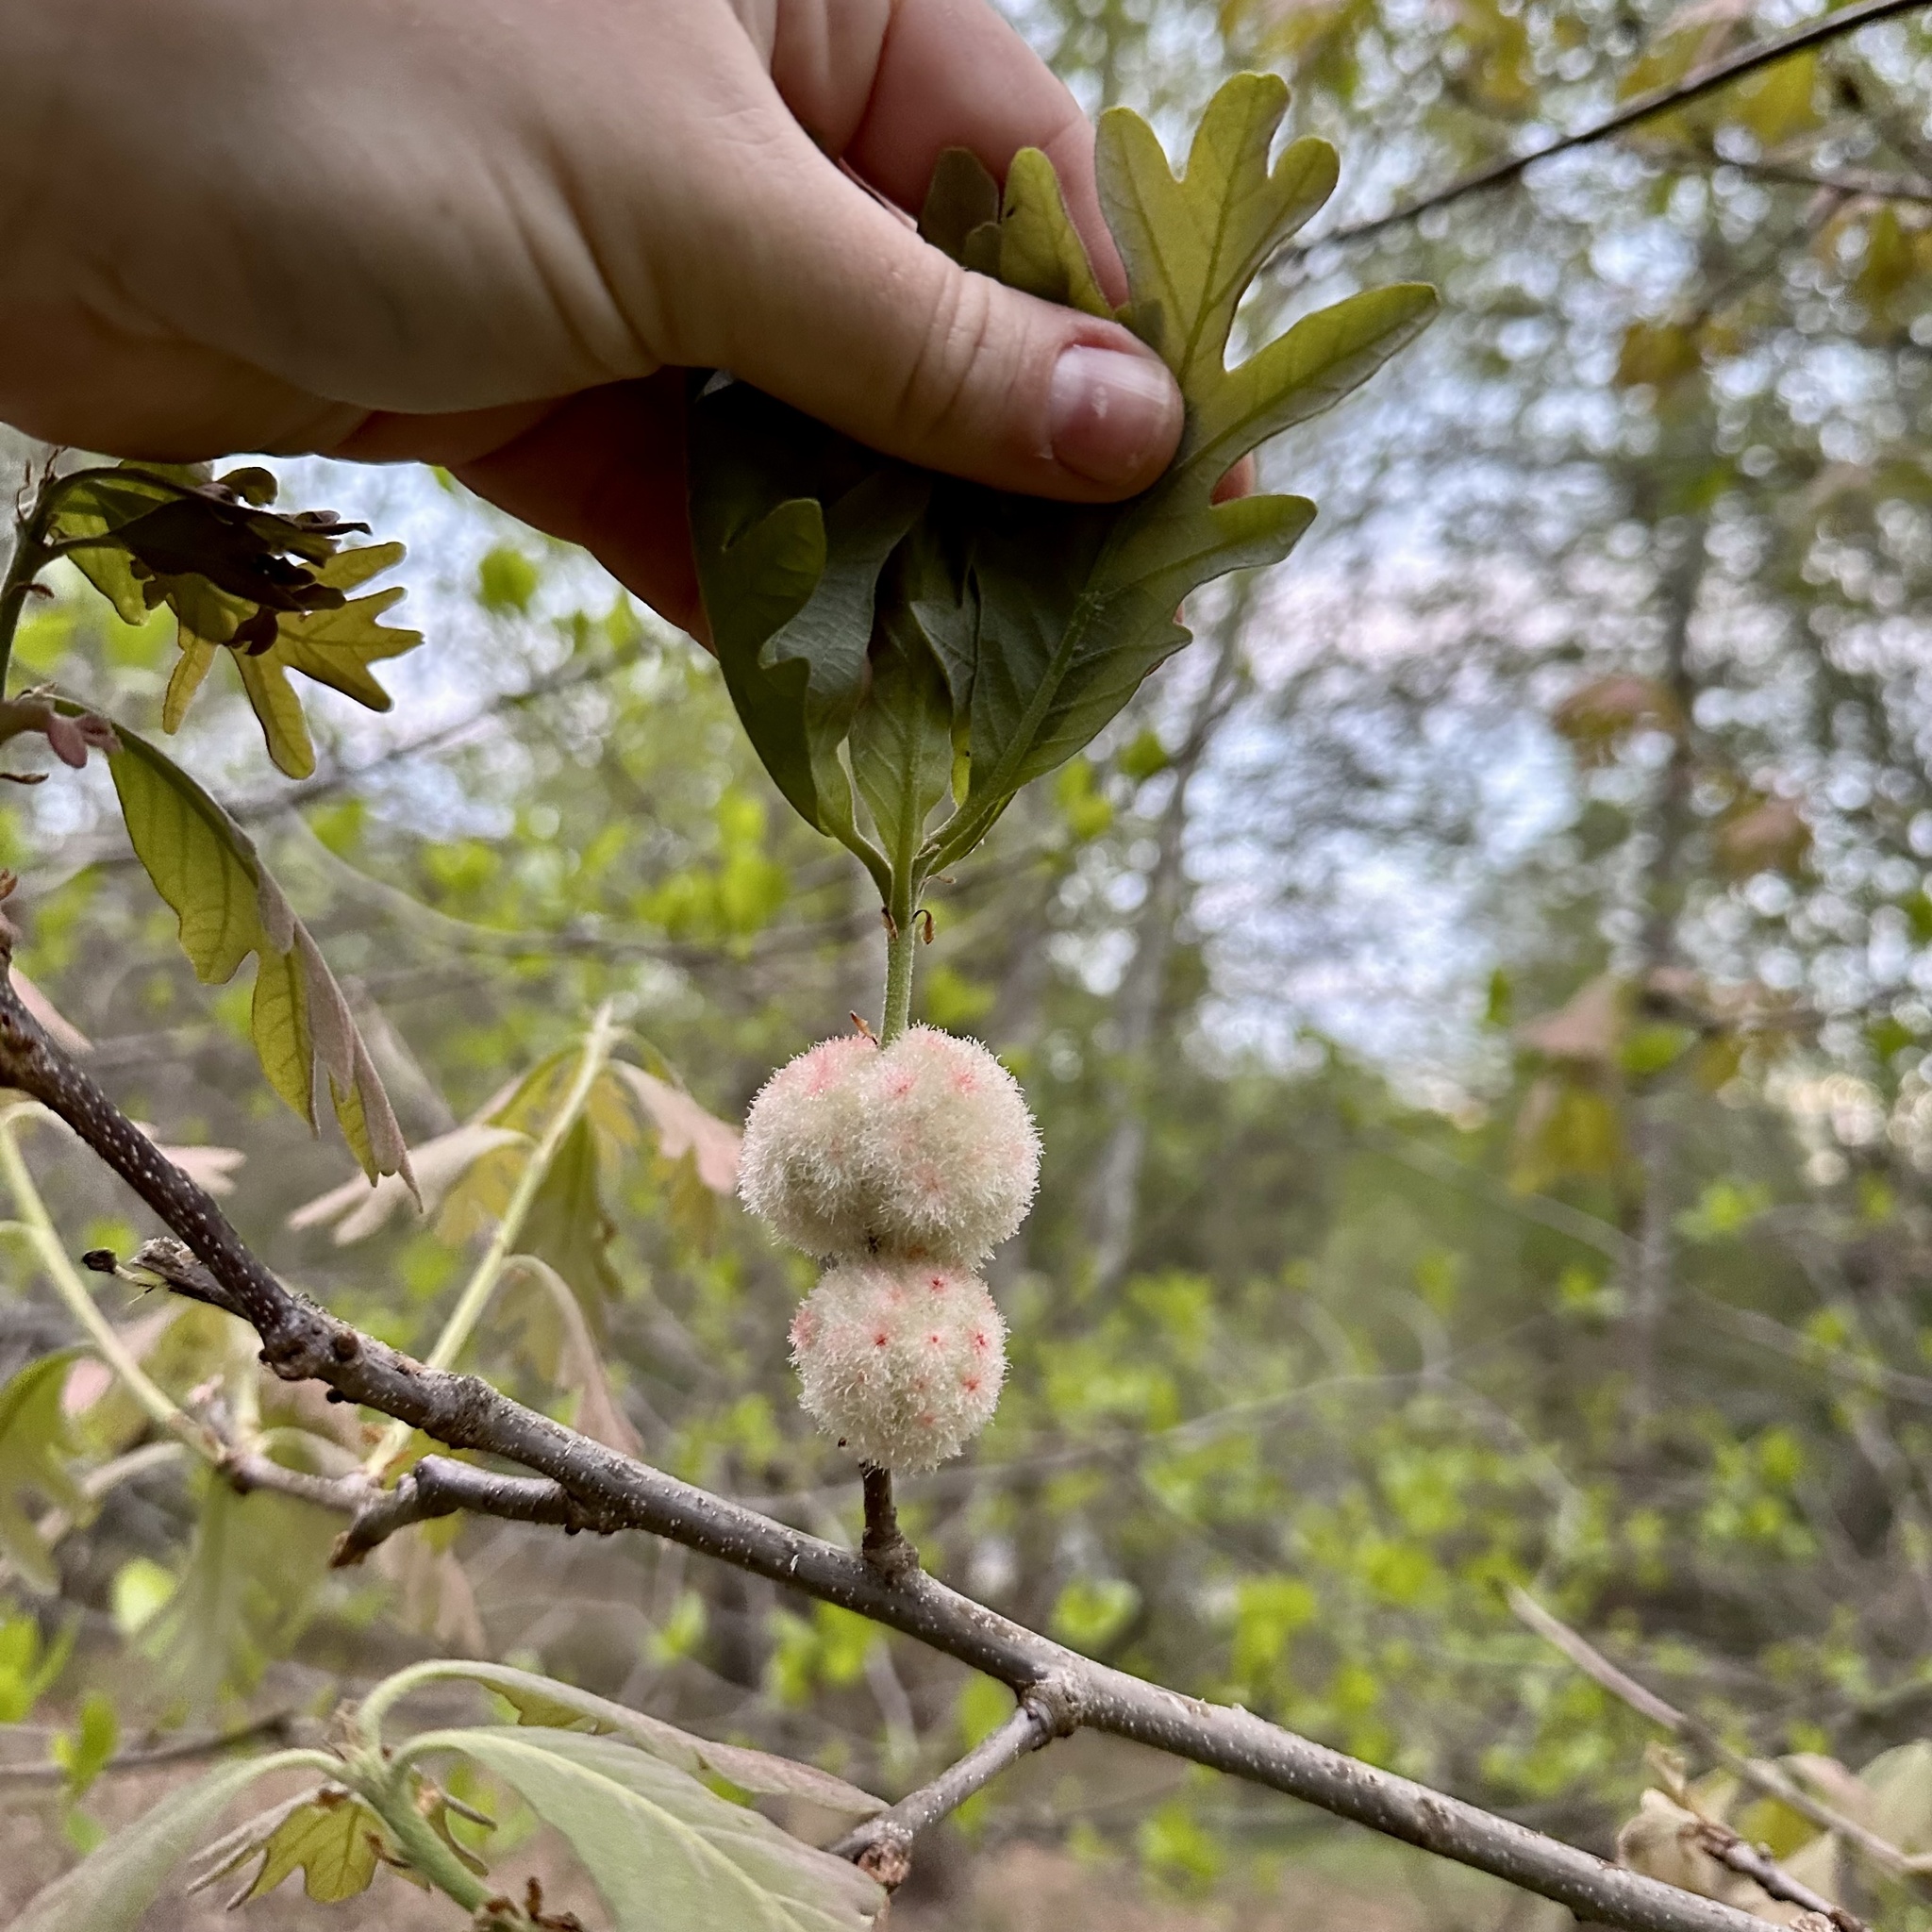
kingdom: Animalia
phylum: Arthropoda
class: Insecta
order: Hymenoptera
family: Cynipidae
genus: Callirhytis
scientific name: Callirhytis
